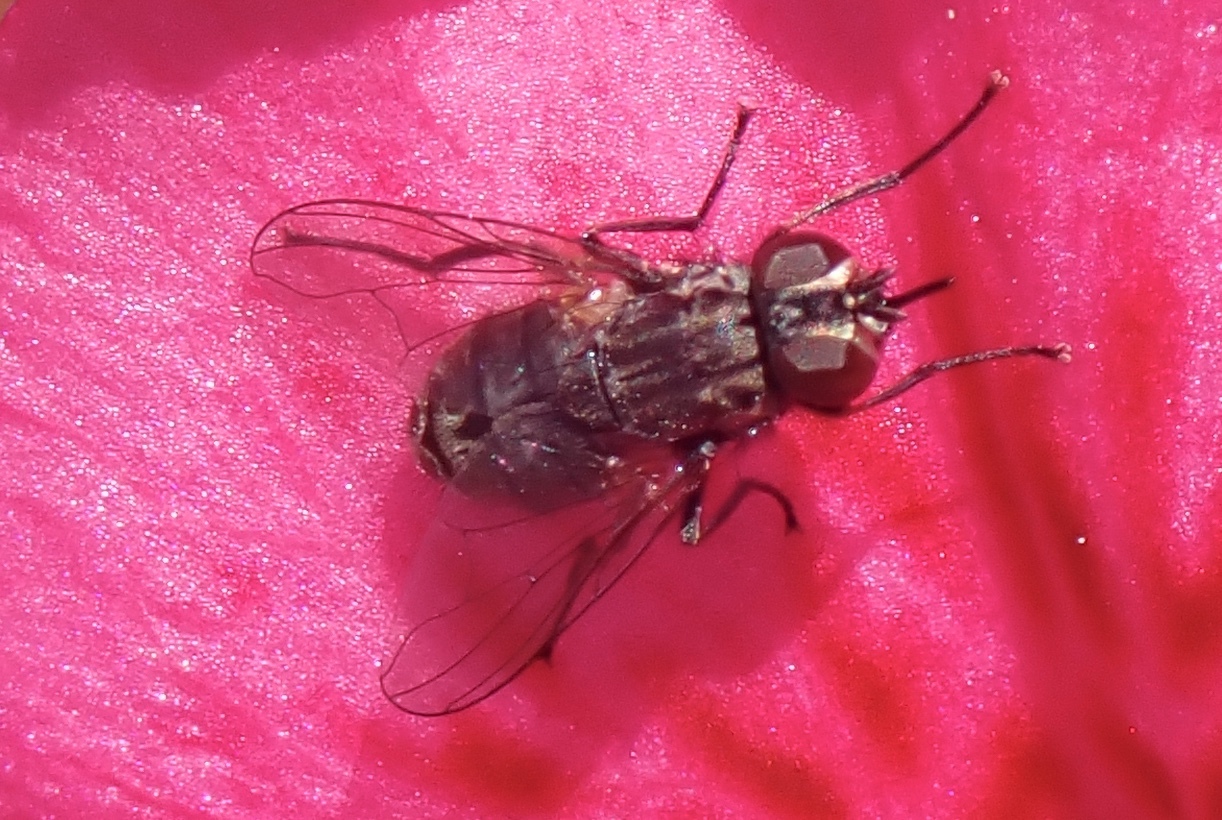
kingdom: Animalia
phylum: Arthropoda
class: Insecta
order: Diptera
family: Muscidae
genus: Stomoxys
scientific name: Stomoxys calcitrans
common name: Stable fly
